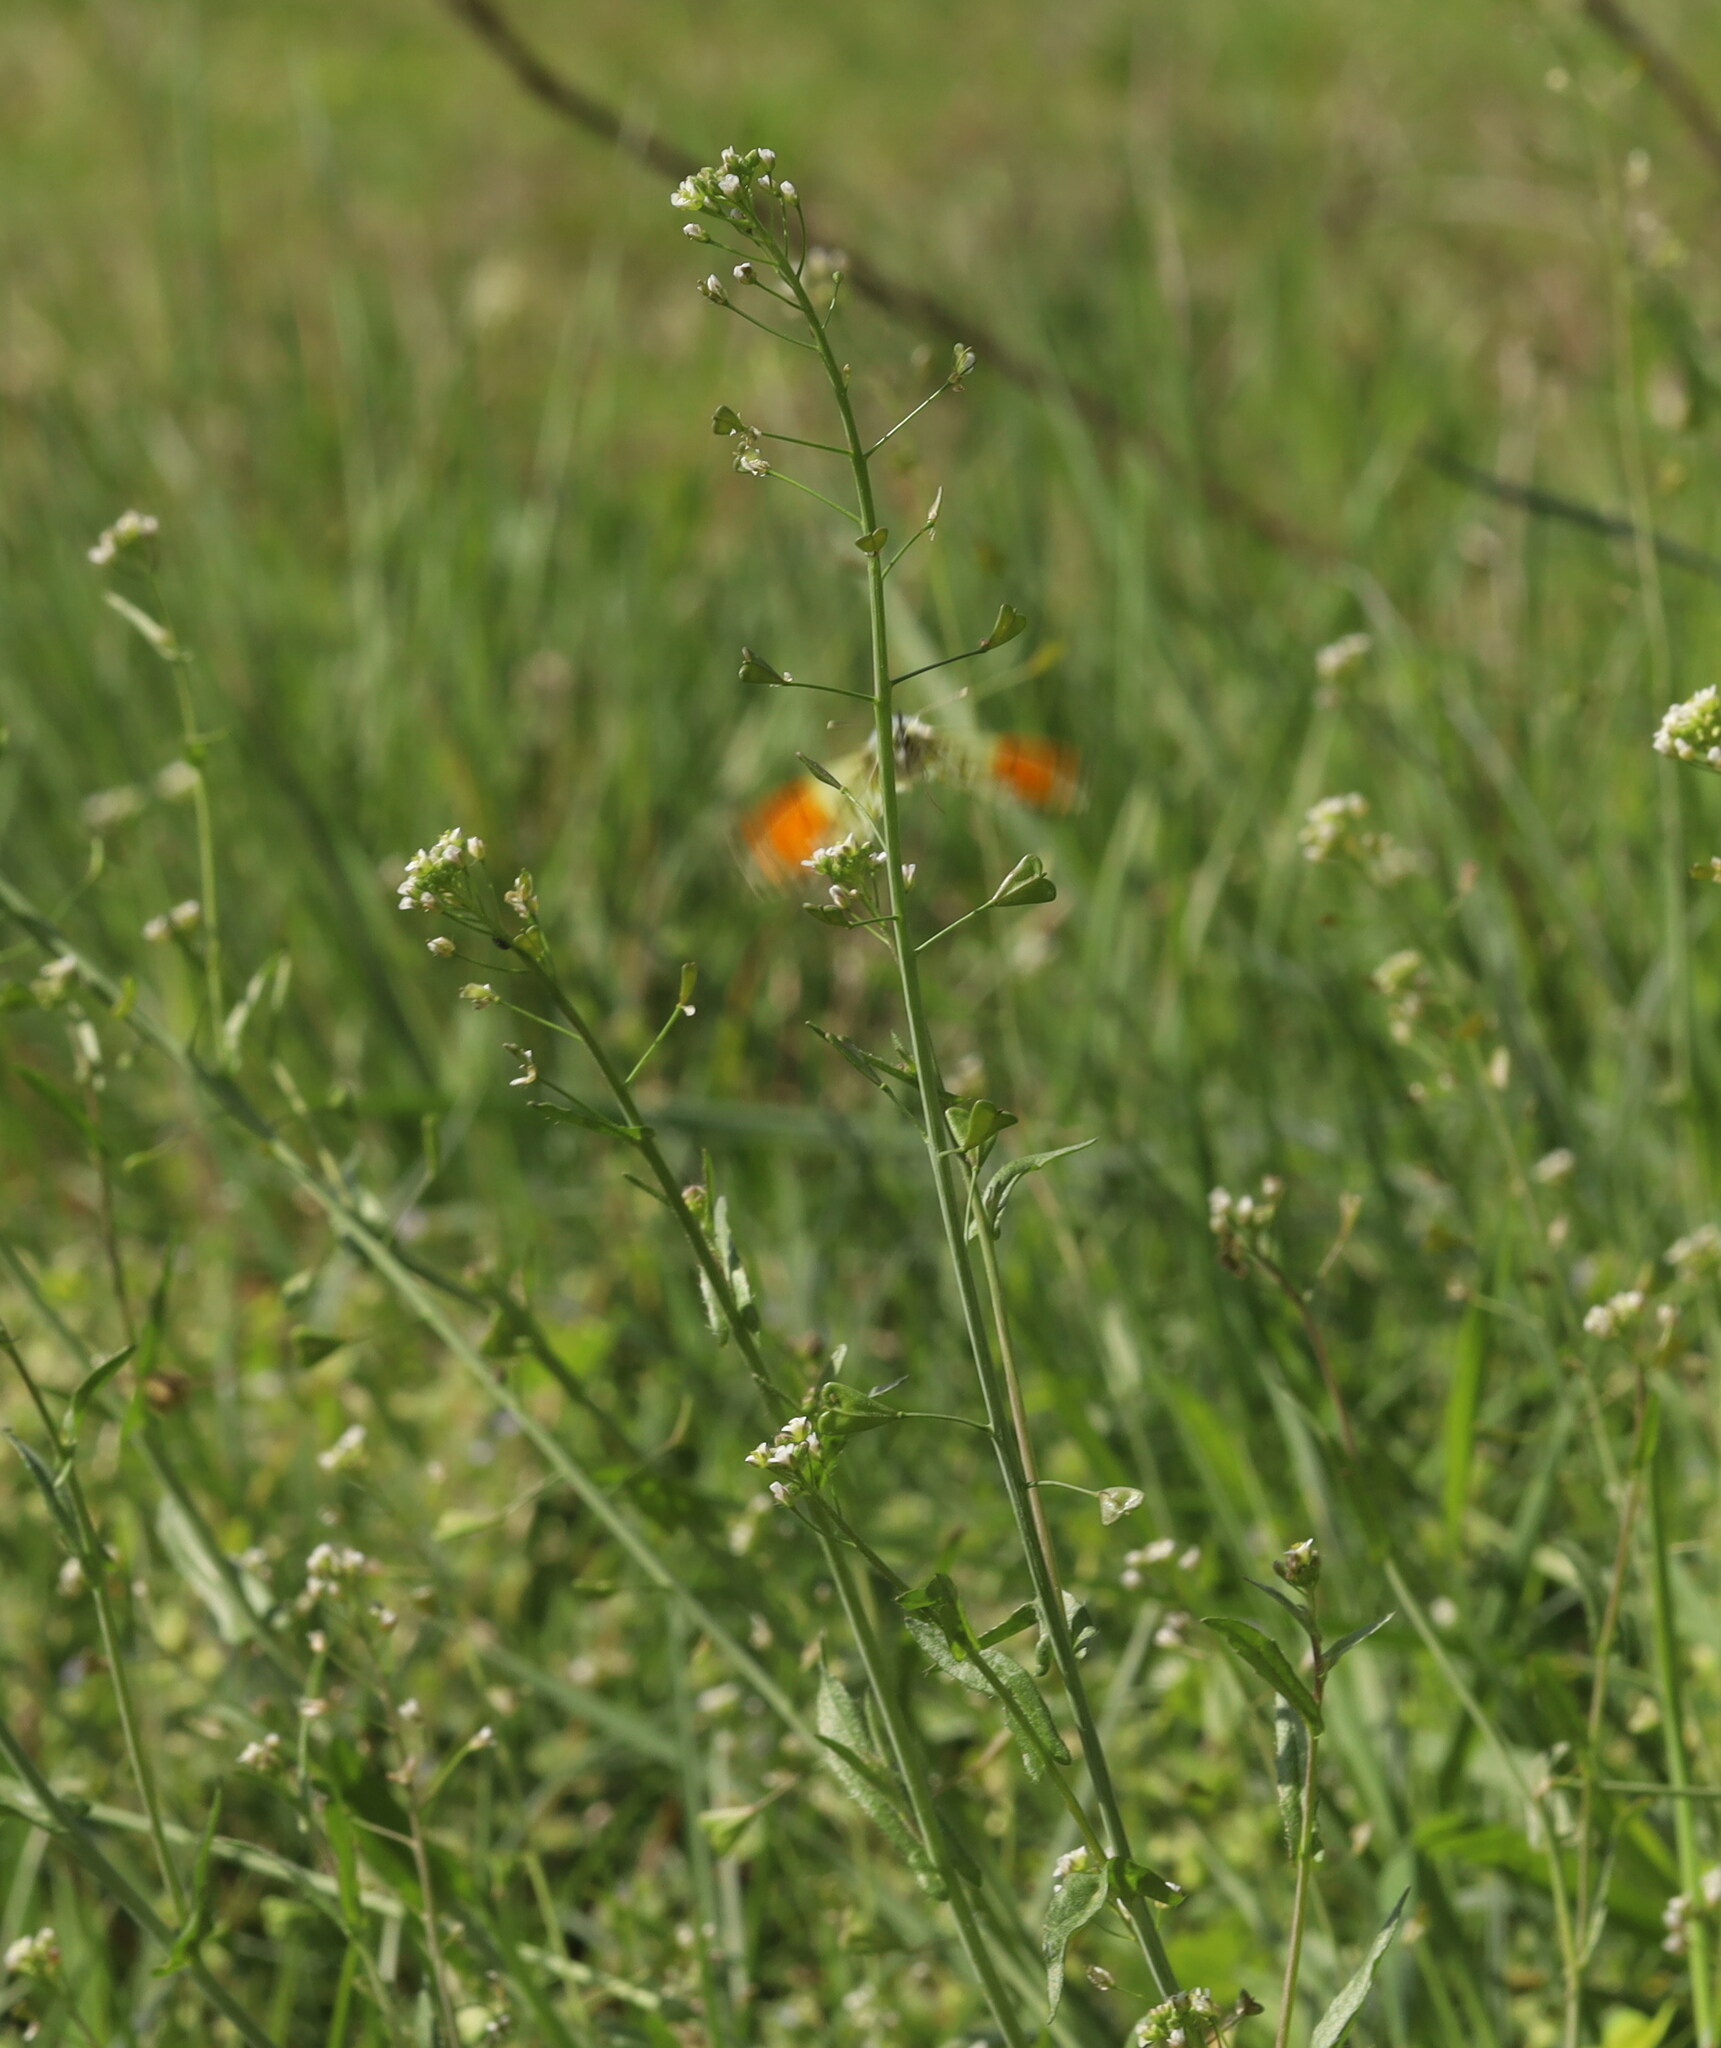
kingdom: Plantae
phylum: Tracheophyta
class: Magnoliopsida
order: Brassicales
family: Brassicaceae
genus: Capsella
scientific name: Capsella bursa-pastoris
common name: Shepherd's purse
